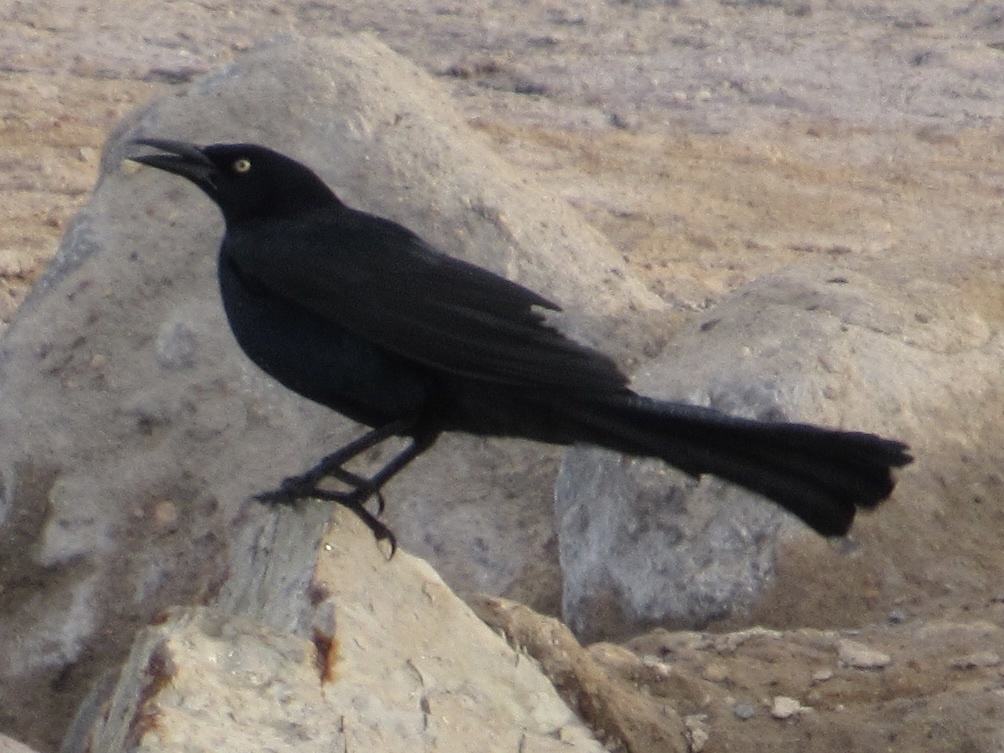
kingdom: Animalia
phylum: Chordata
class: Aves
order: Passeriformes
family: Icteridae
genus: Quiscalus
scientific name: Quiscalus mexicanus
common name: Great-tailed grackle
